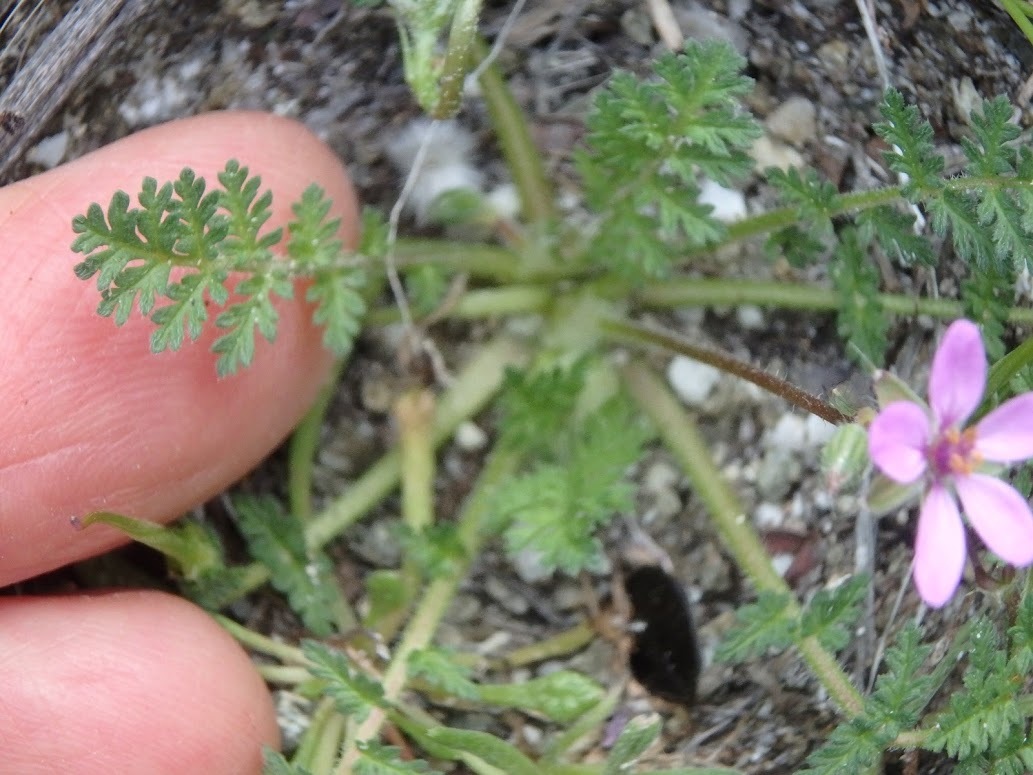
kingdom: Plantae
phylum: Tracheophyta
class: Magnoliopsida
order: Geraniales
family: Geraniaceae
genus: Erodium
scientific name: Erodium cicutarium
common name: Common stork's-bill
